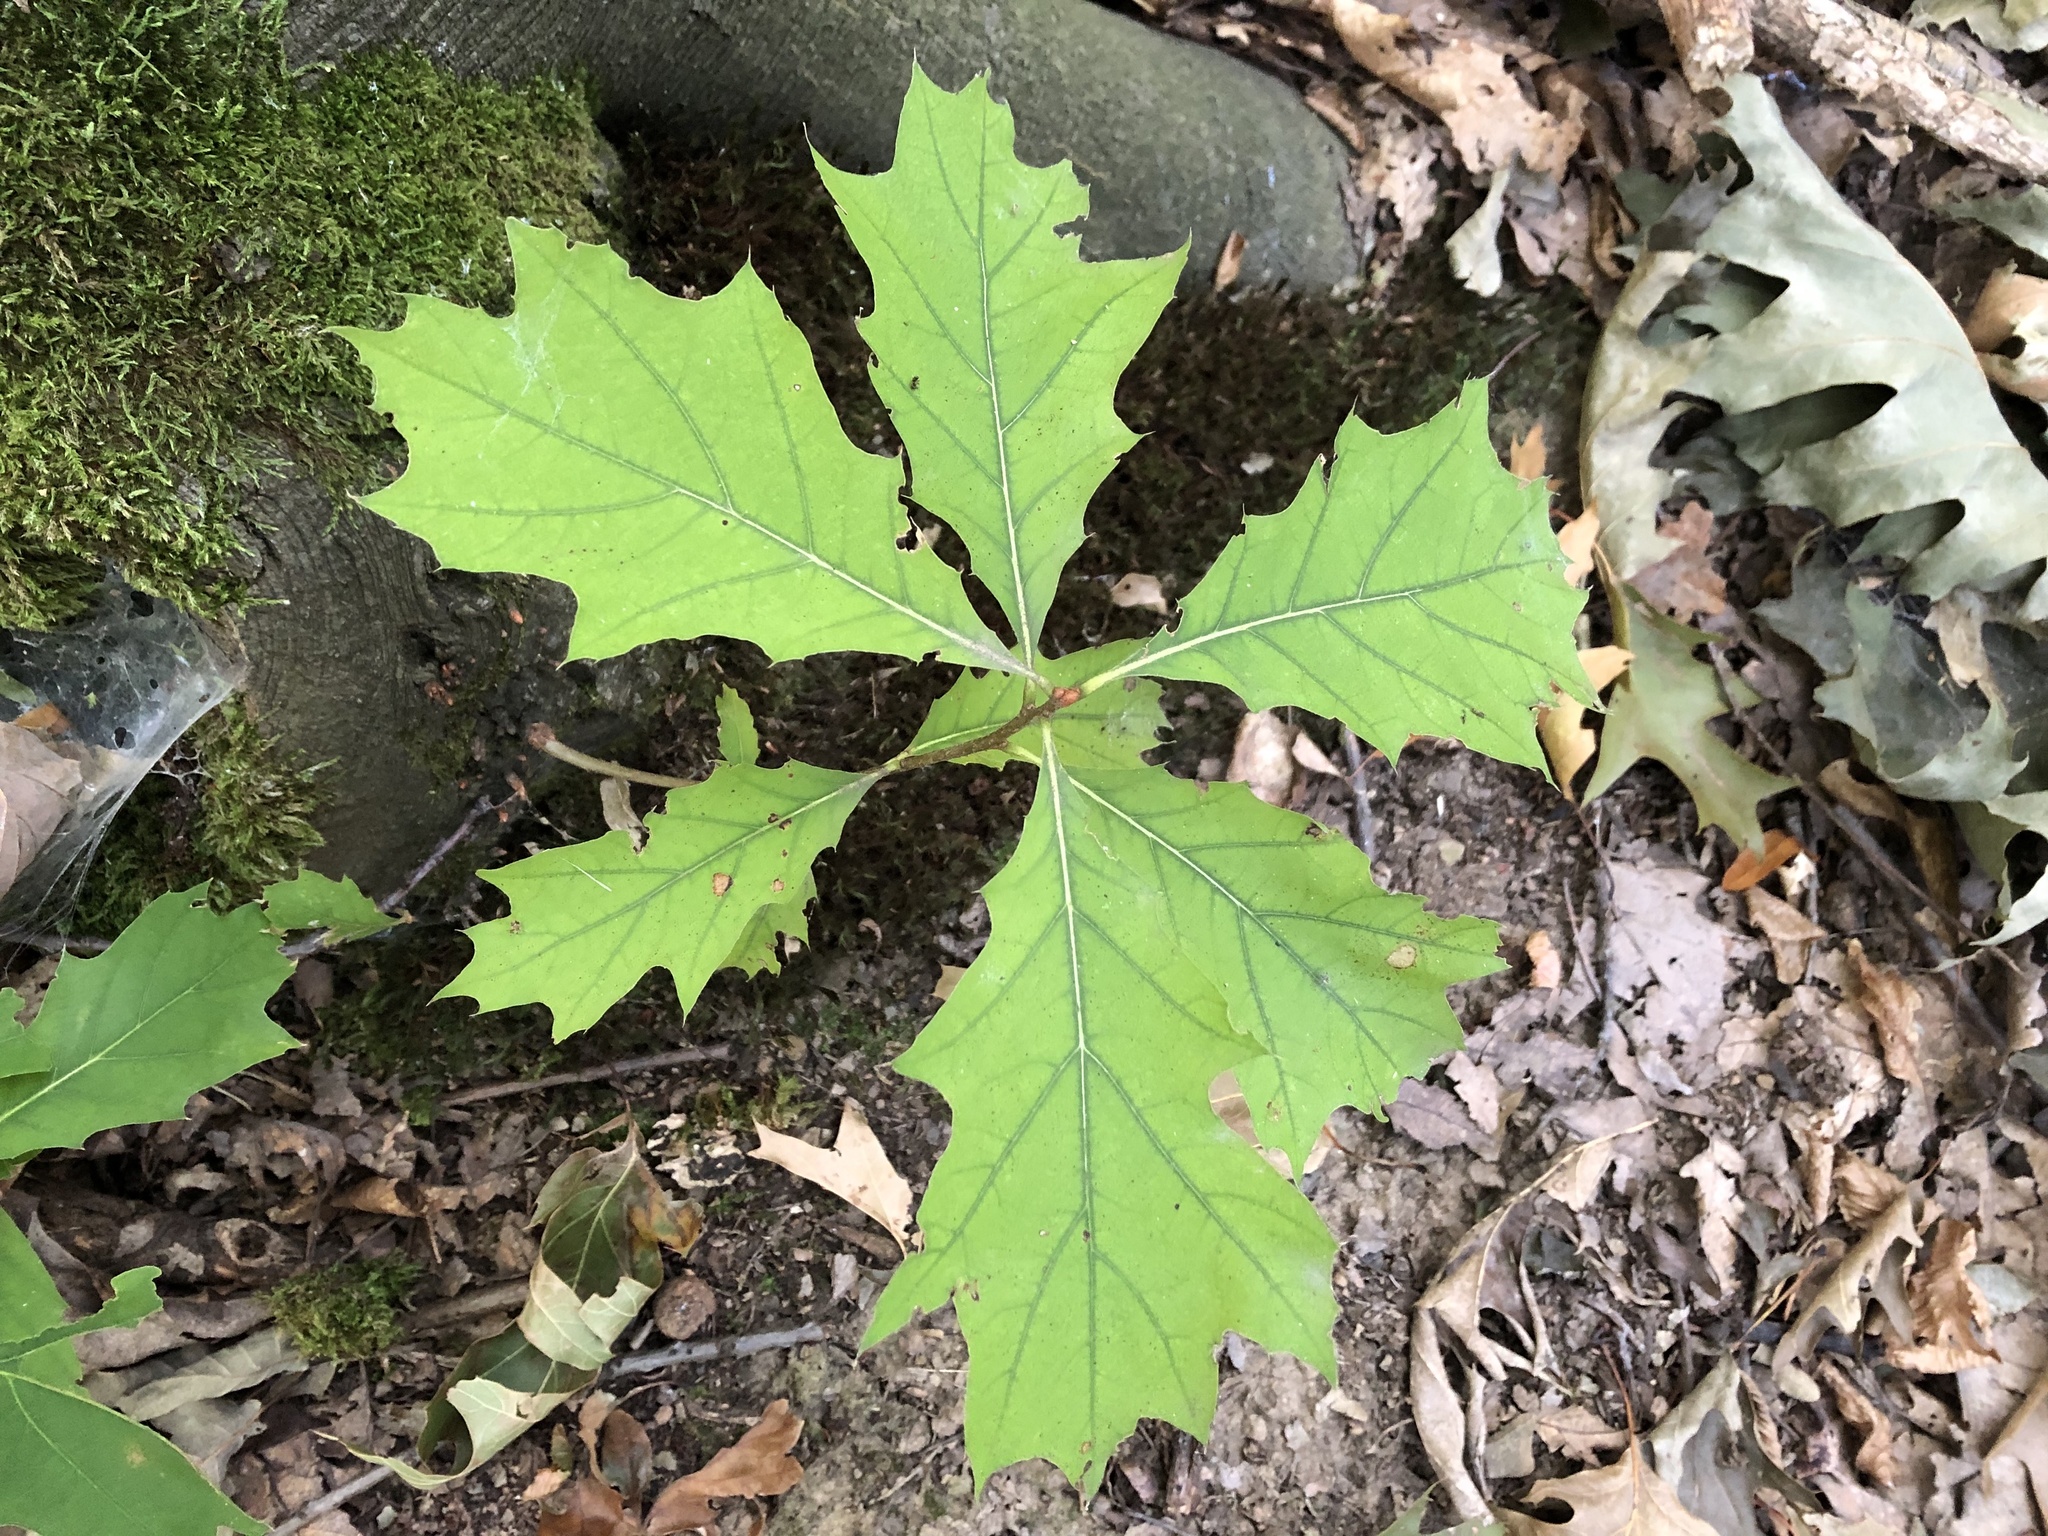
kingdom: Plantae
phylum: Tracheophyta
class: Magnoliopsida
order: Fagales
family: Fagaceae
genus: Quercus
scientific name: Quercus rubra
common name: Red oak
